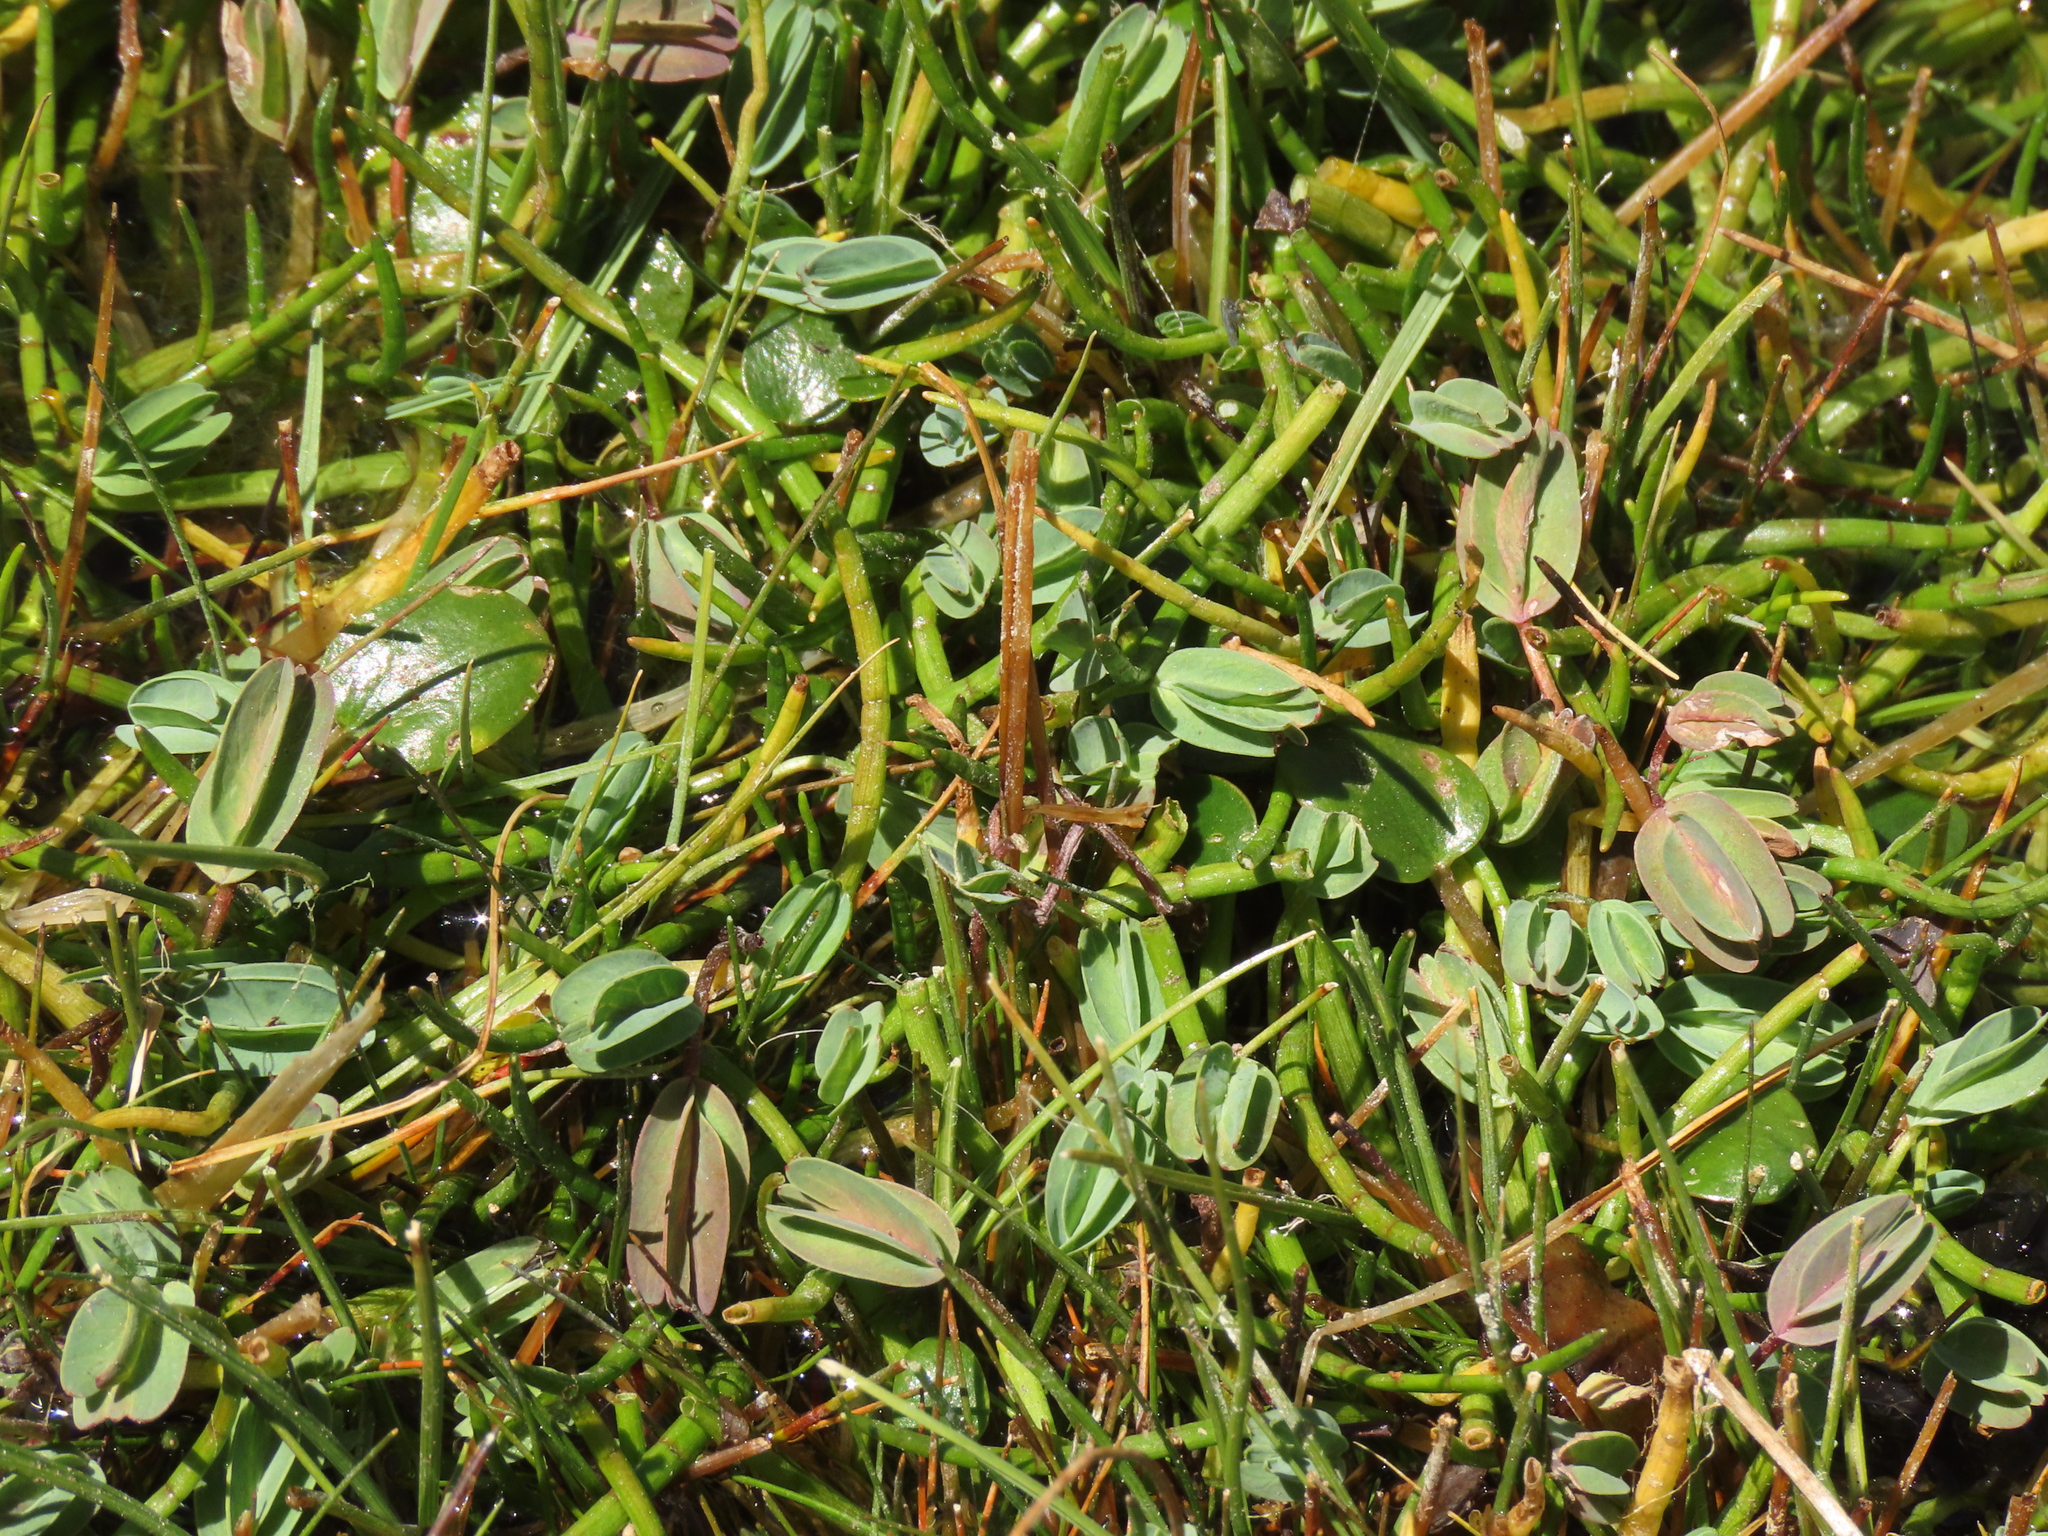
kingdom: Plantae
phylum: Tracheophyta
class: Magnoliopsida
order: Rosales
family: Rosaceae
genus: Lachemilla
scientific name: Lachemilla diplophylla
